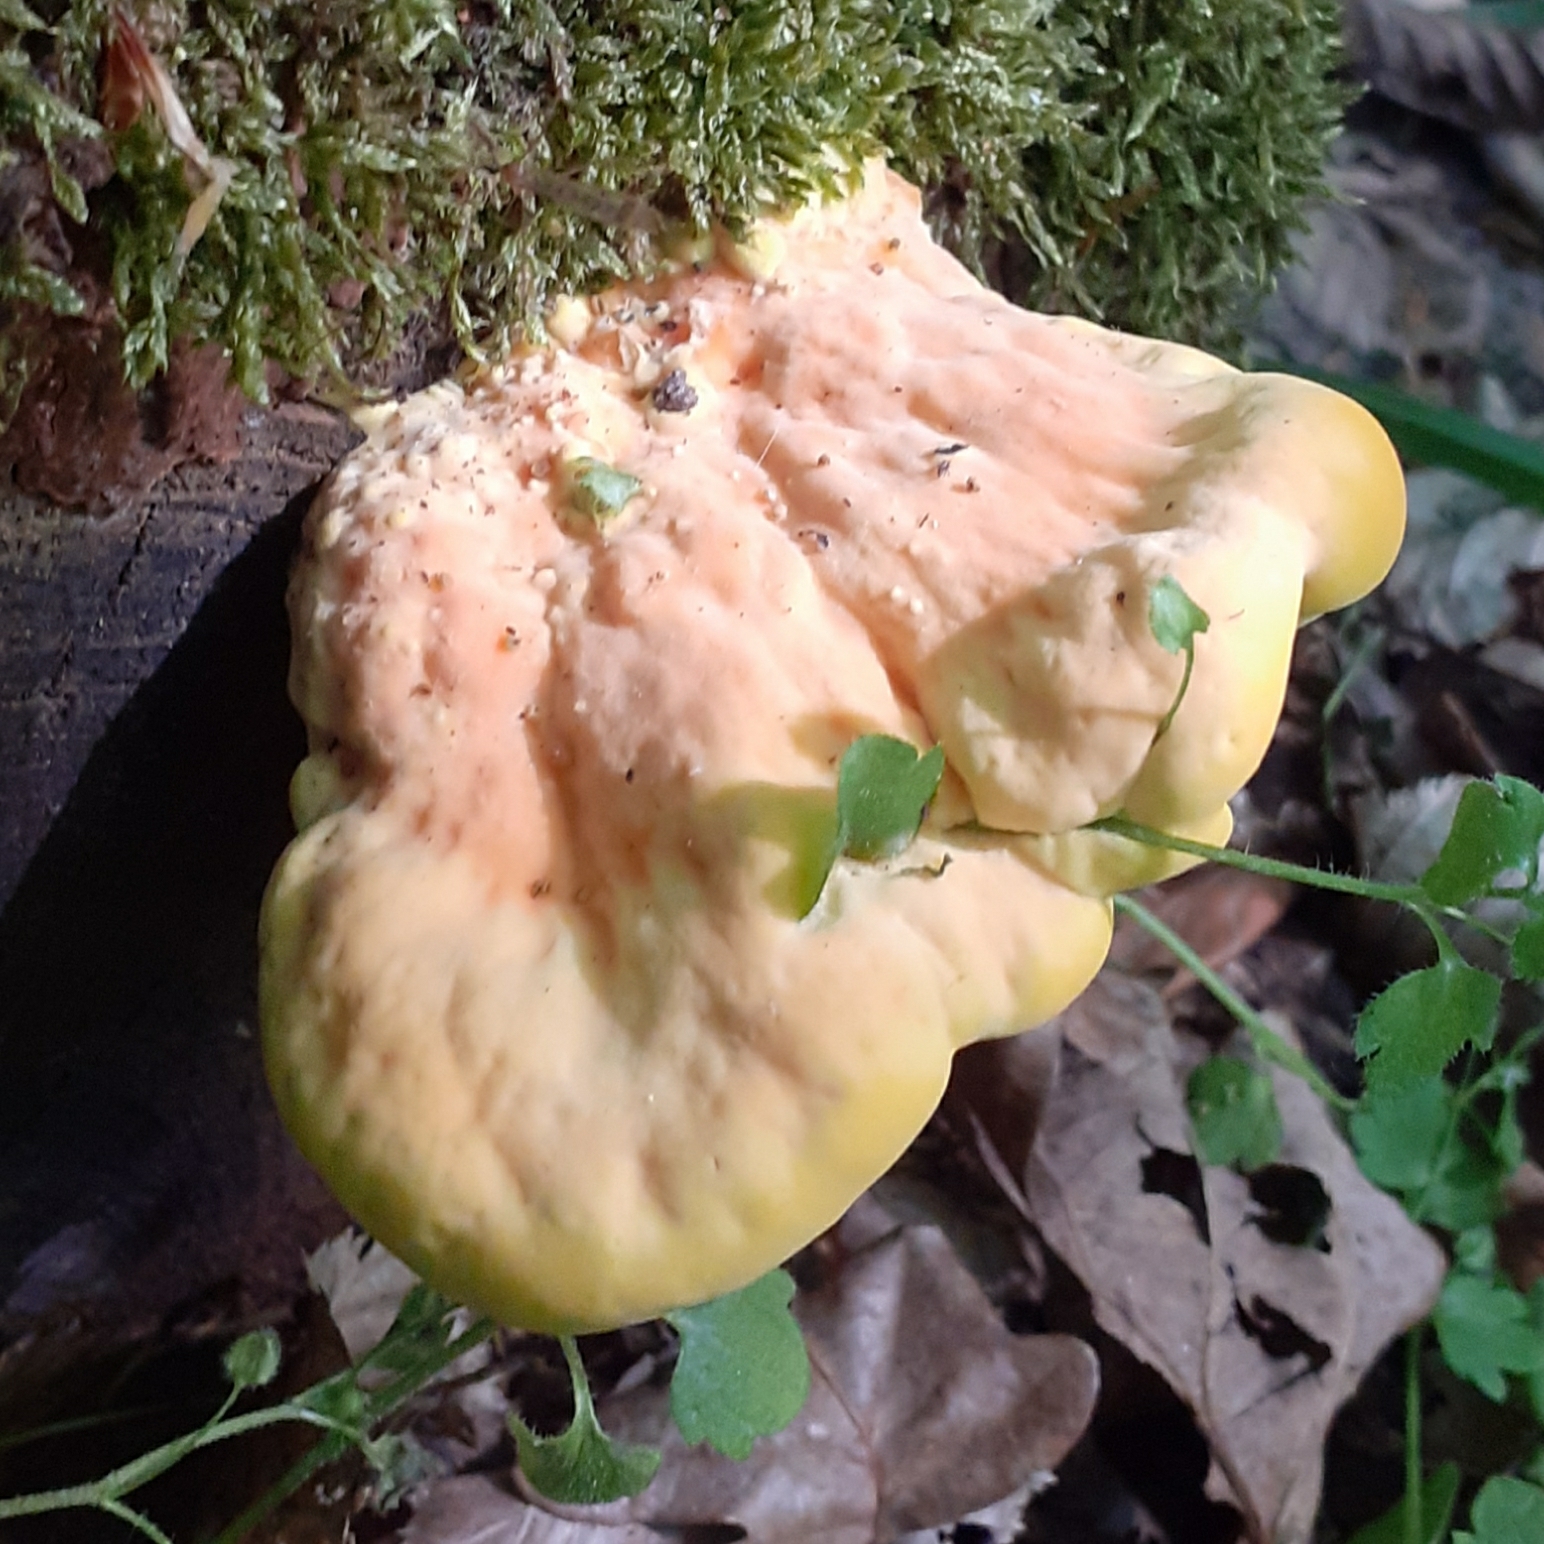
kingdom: Fungi
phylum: Basidiomycota
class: Agaricomycetes
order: Polyporales
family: Laetiporaceae
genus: Laetiporus
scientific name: Laetiporus sulphureus
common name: Chicken of the woods
